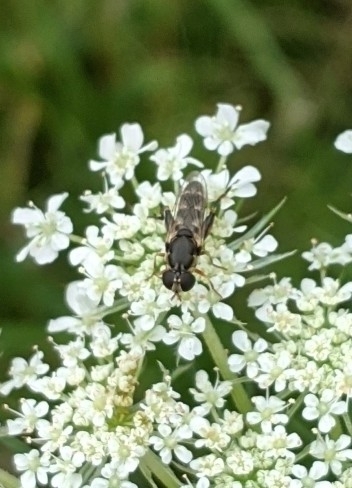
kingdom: Animalia
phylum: Arthropoda
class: Insecta
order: Diptera
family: Syrphidae
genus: Syritta
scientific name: Syritta pipiens
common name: Hover fly
